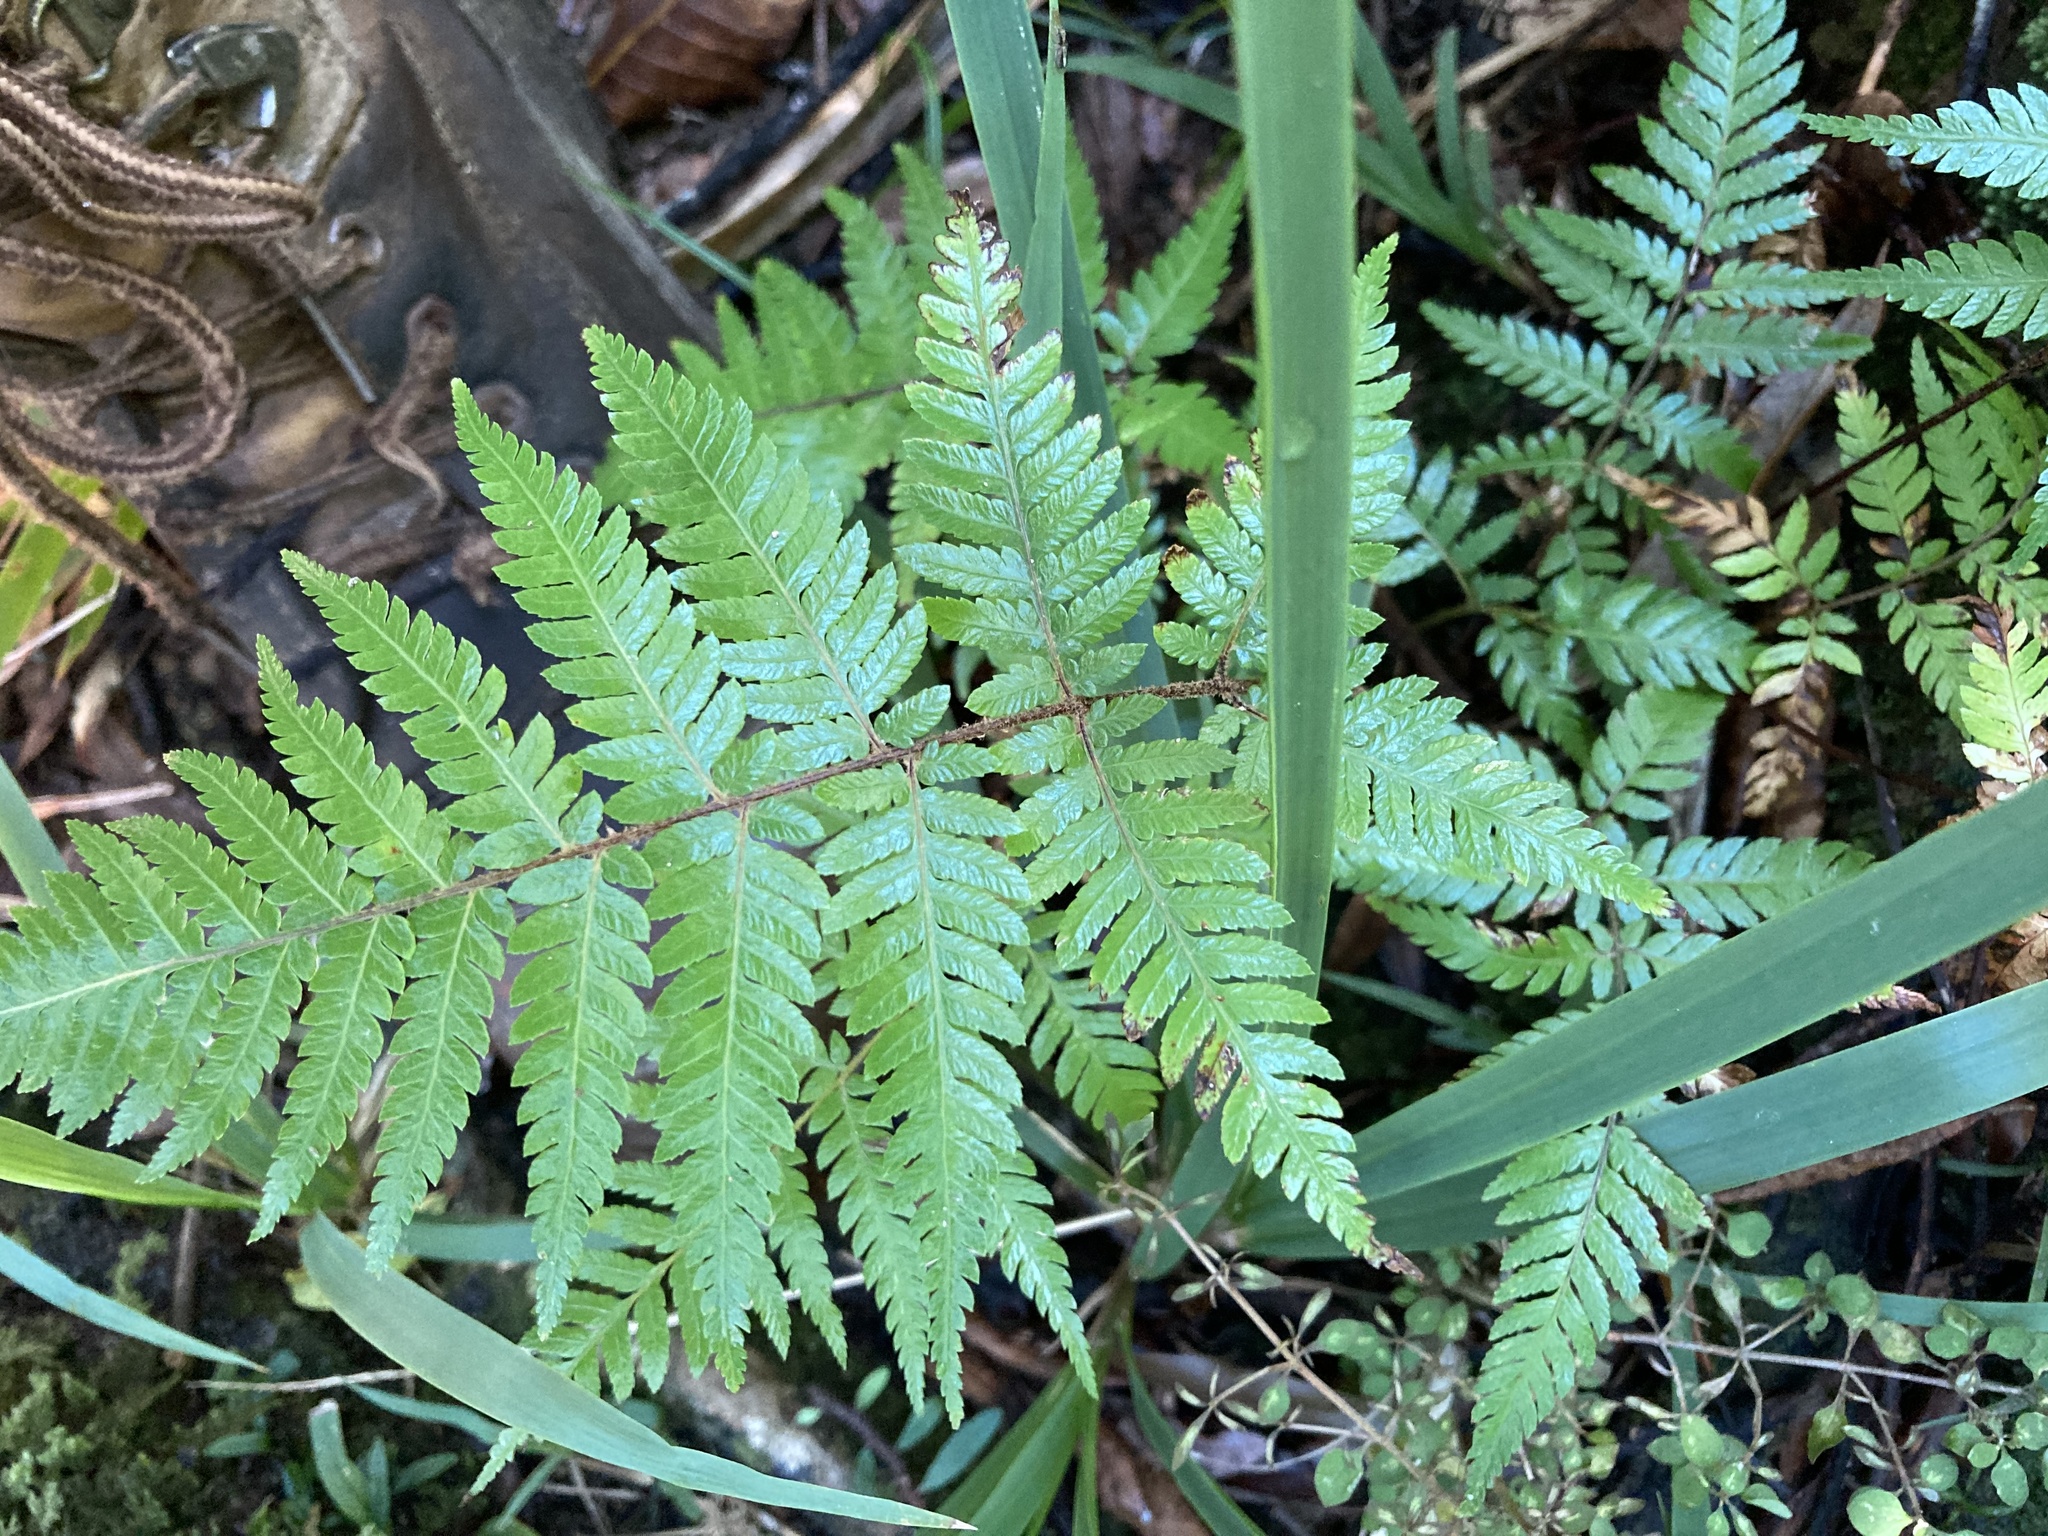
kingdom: Plantae
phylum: Tracheophyta
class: Polypodiopsida
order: Cyatheales
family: Cyatheaceae
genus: Alsophila
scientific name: Alsophila dealbata
